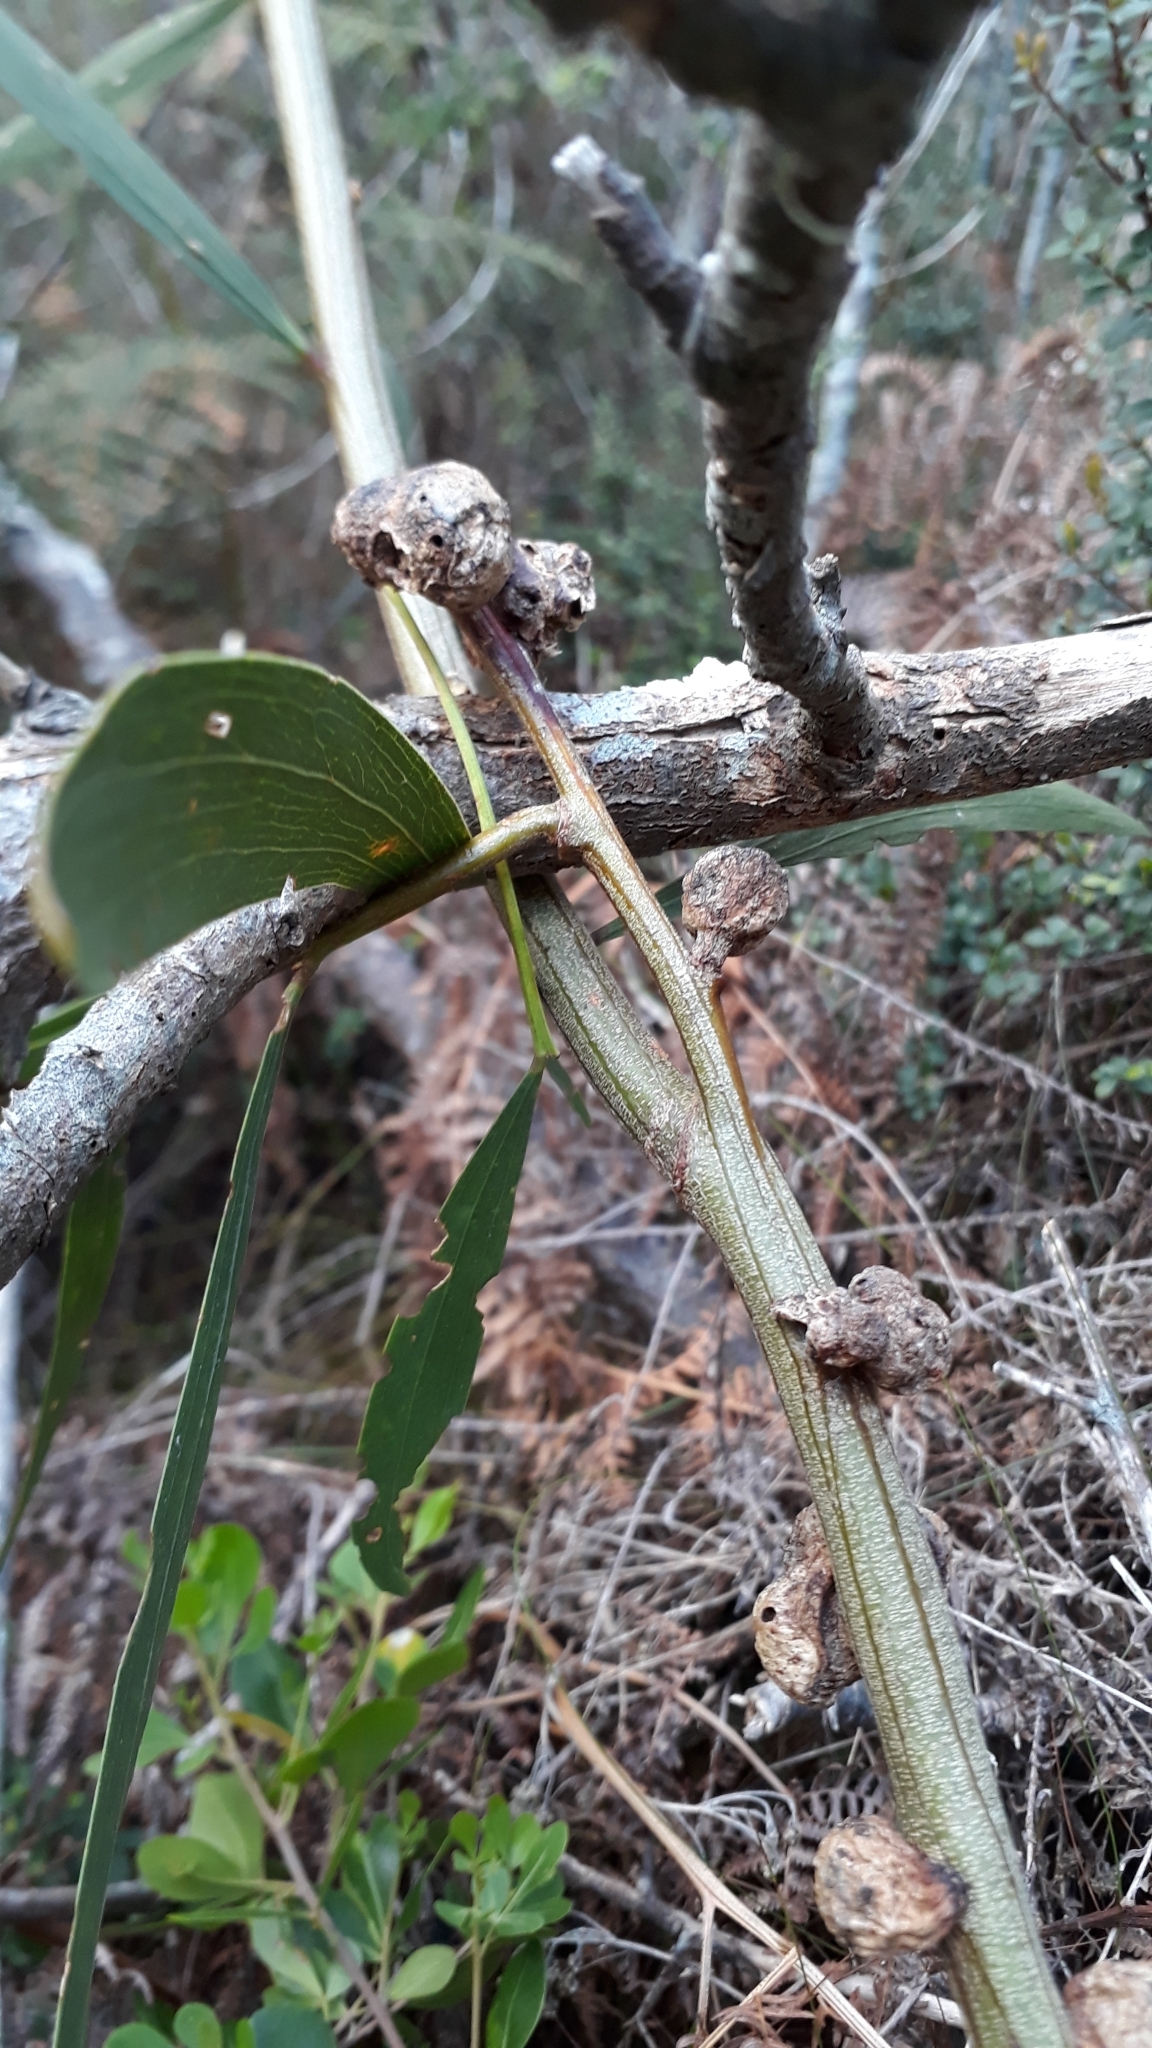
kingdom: Animalia
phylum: Arthropoda
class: Insecta
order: Hymenoptera
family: Pteromalidae
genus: Trichilogaster
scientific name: Trichilogaster acaciaelongifoliae
